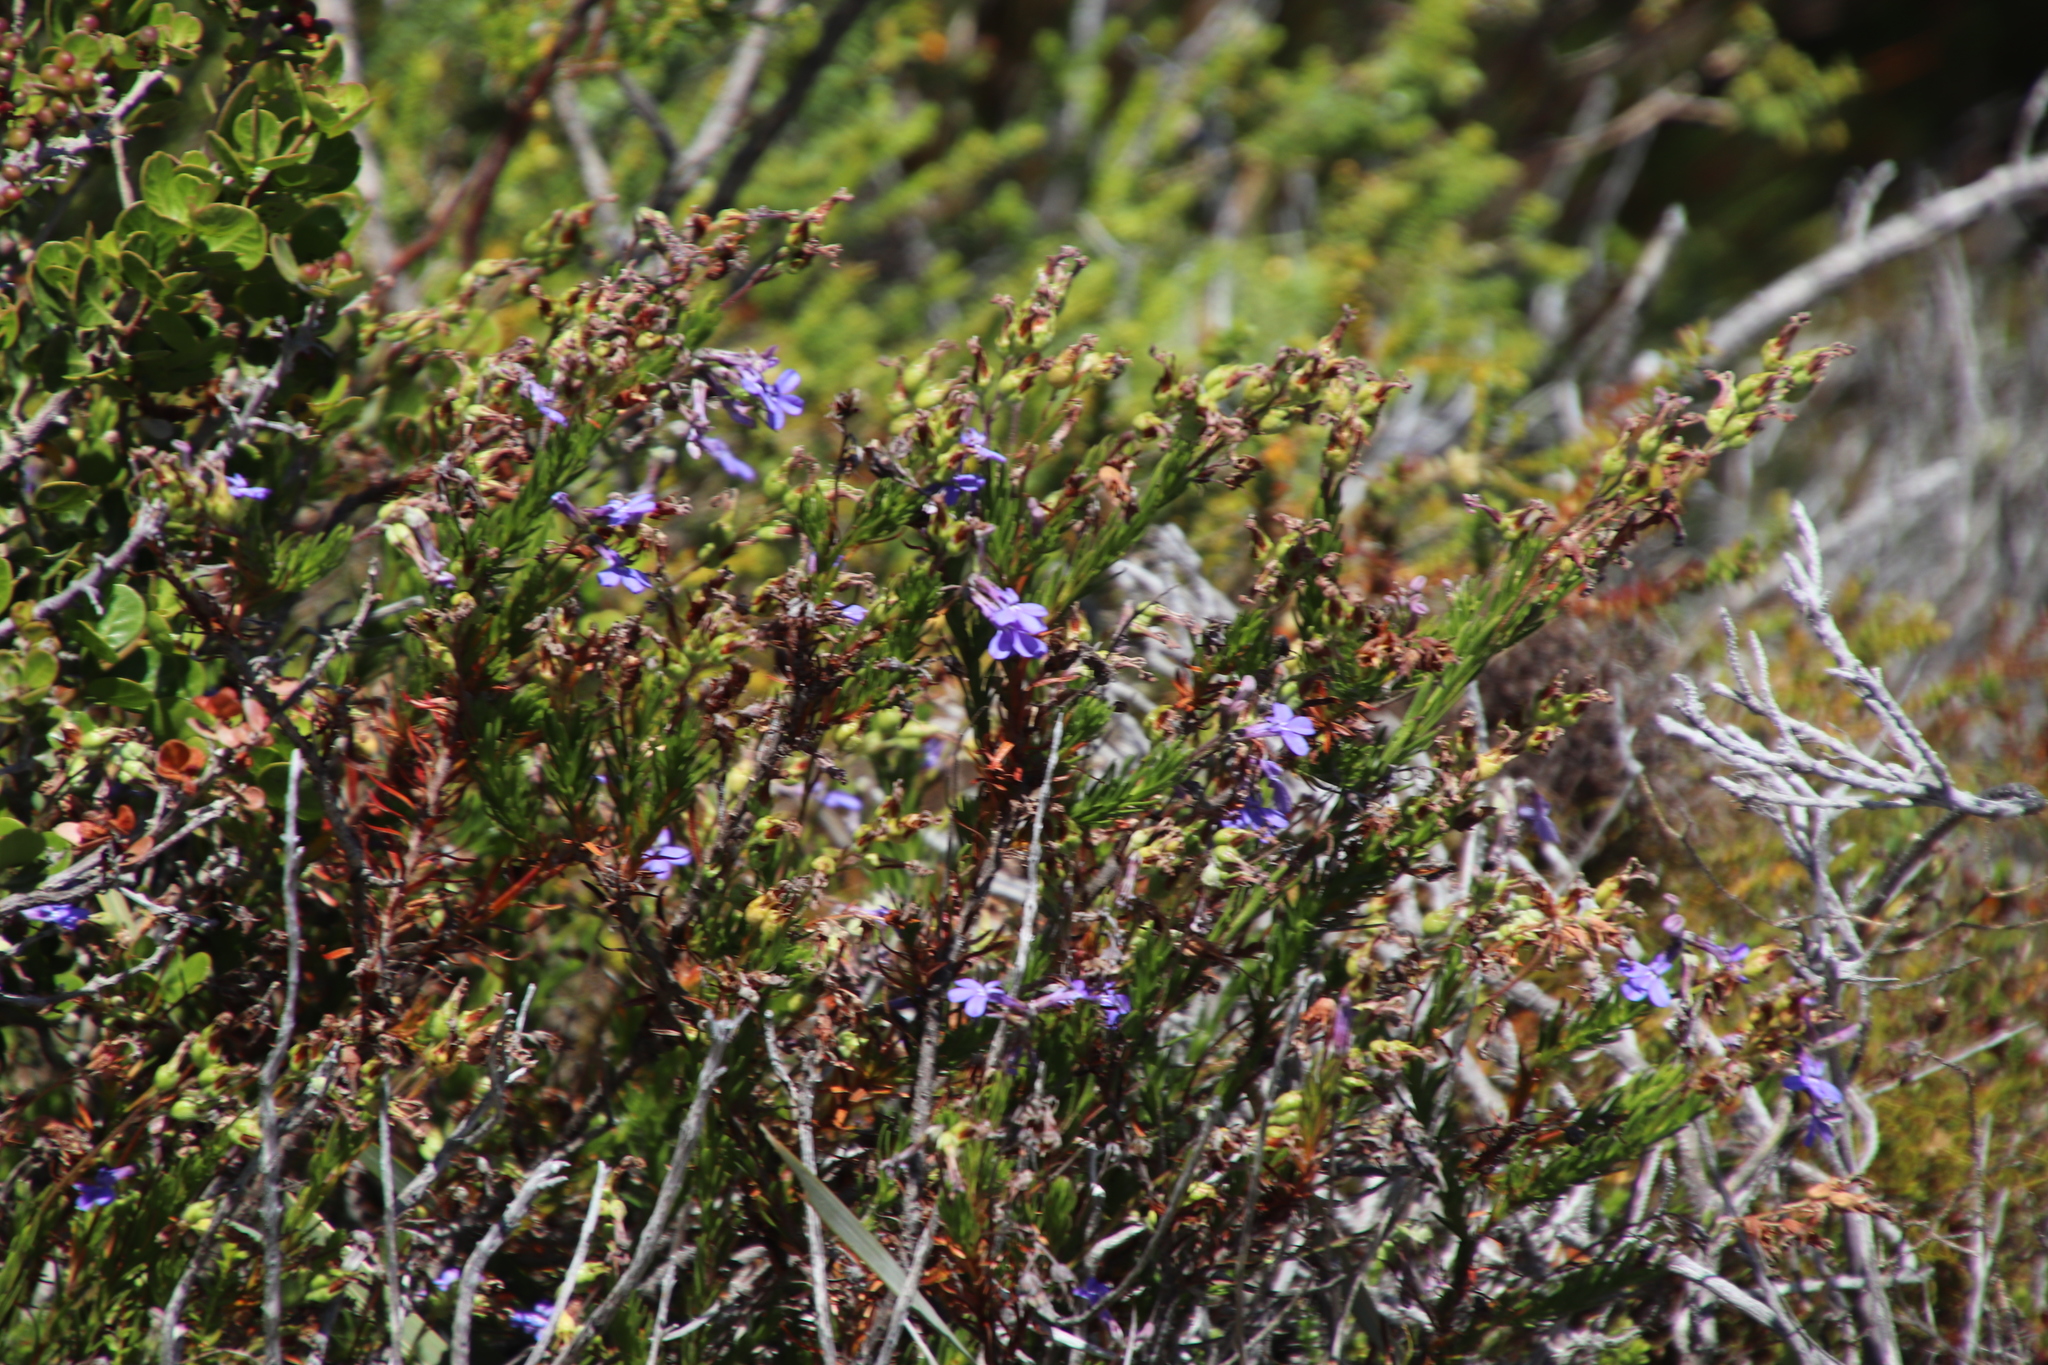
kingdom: Plantae
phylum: Tracheophyta
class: Magnoliopsida
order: Asterales
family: Campanulaceae
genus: Lobelia
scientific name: Lobelia pinifolia
